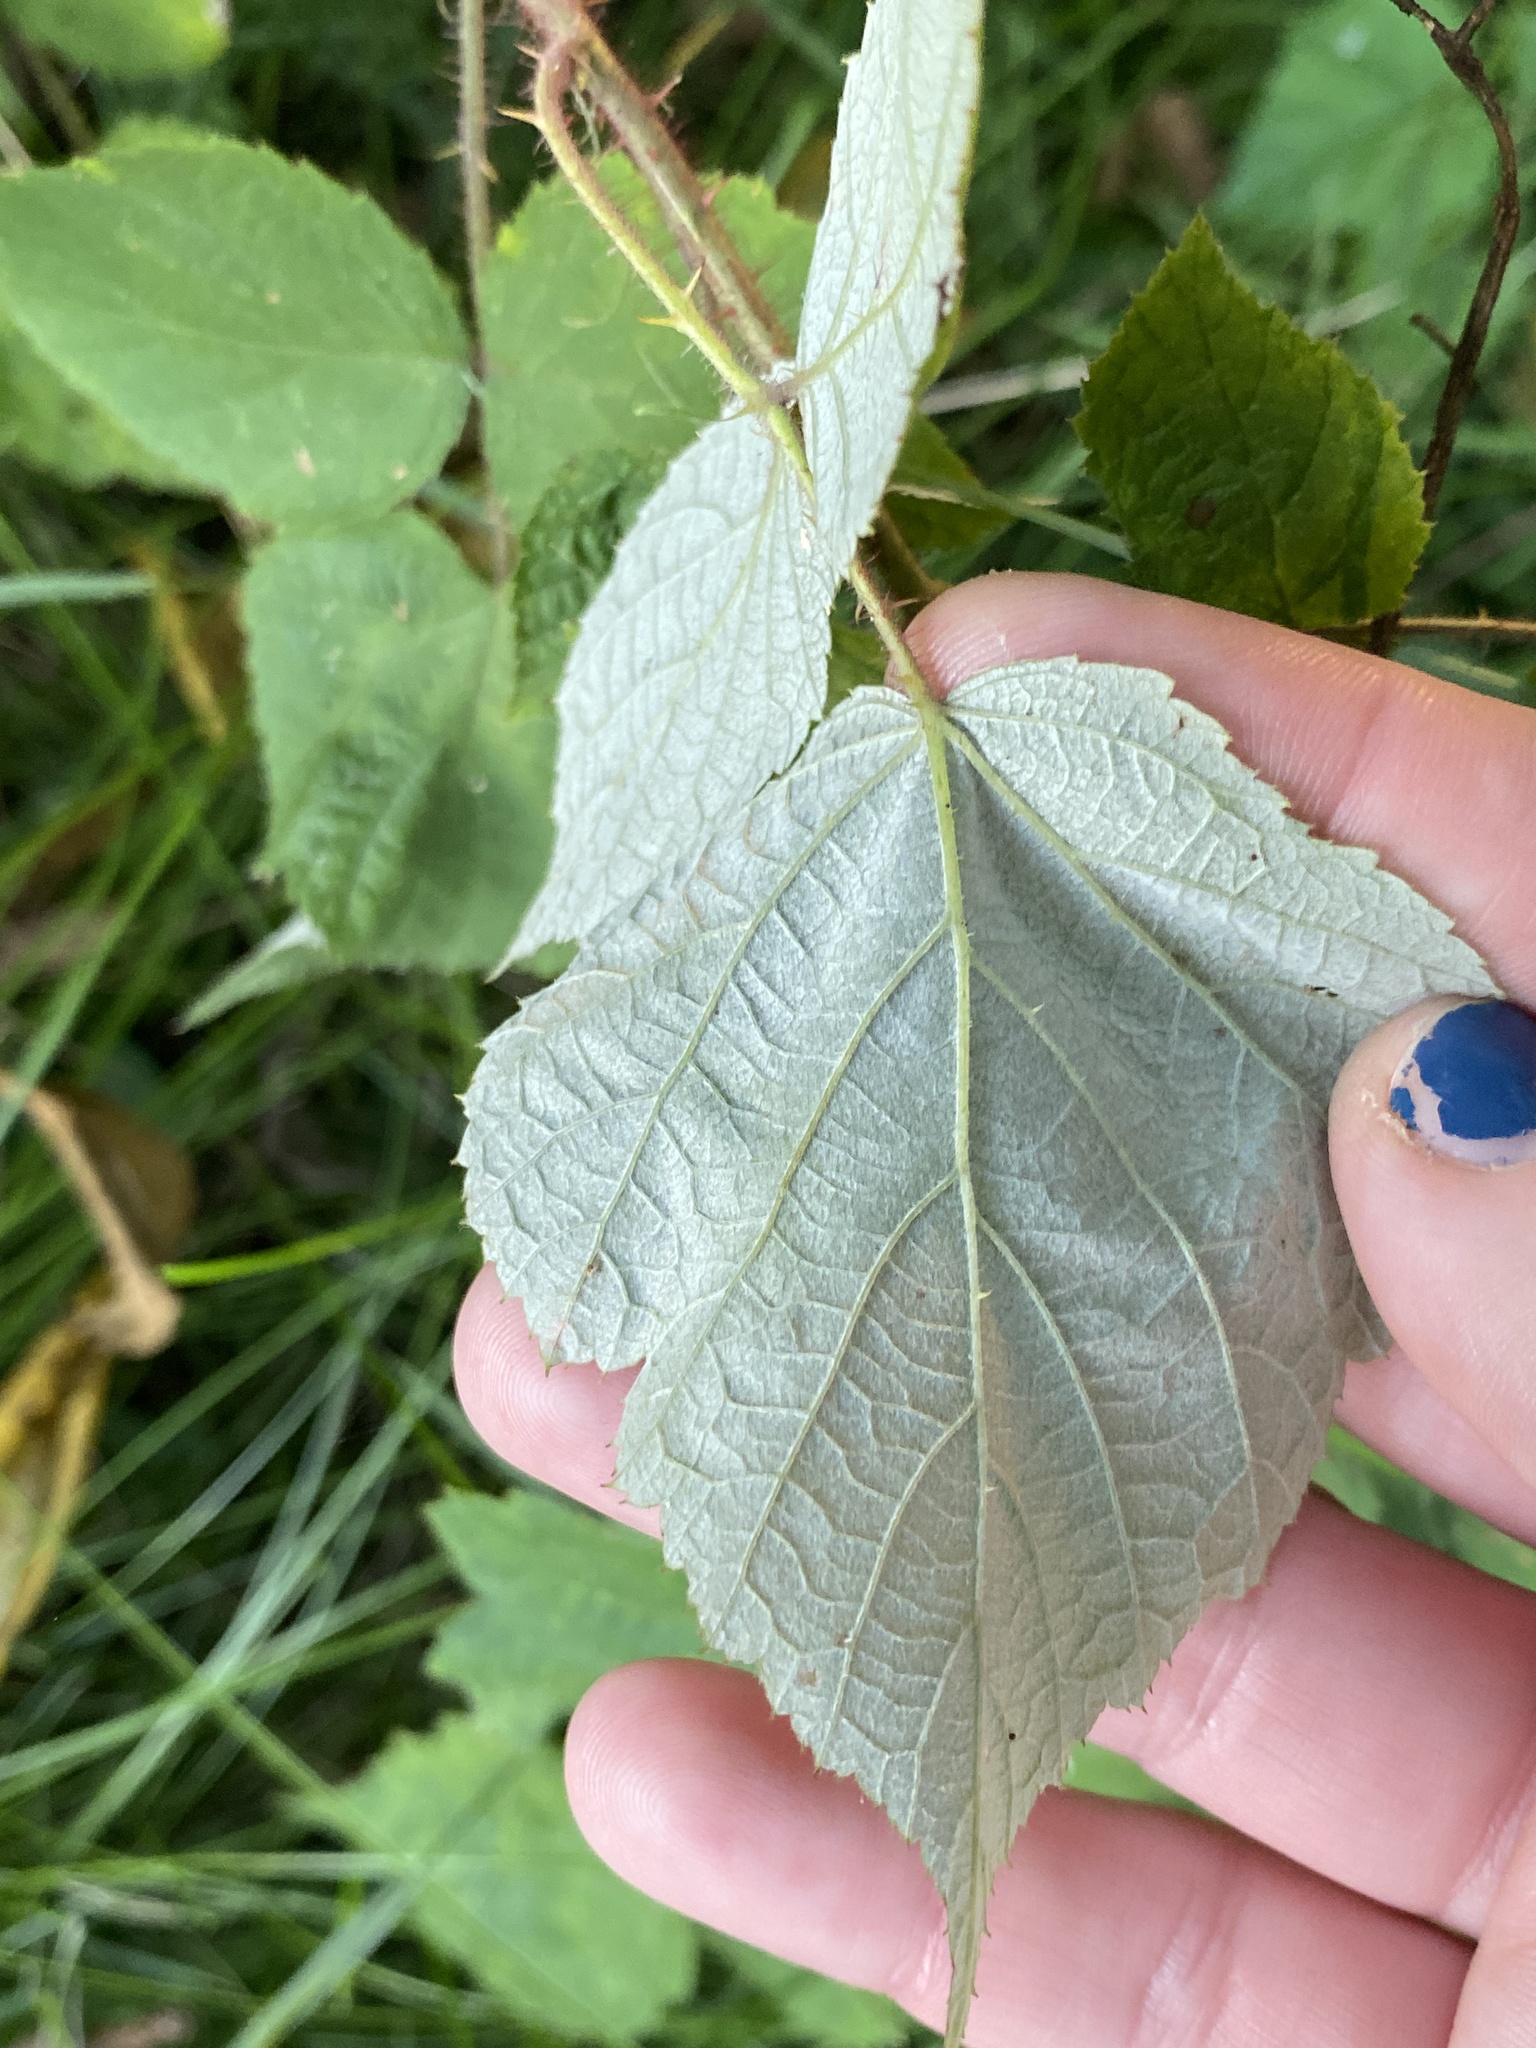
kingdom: Plantae
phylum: Tracheophyta
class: Magnoliopsida
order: Rosales
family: Rosaceae
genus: Rubus
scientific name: Rubus phoenicolasius
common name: Japanese wineberry
